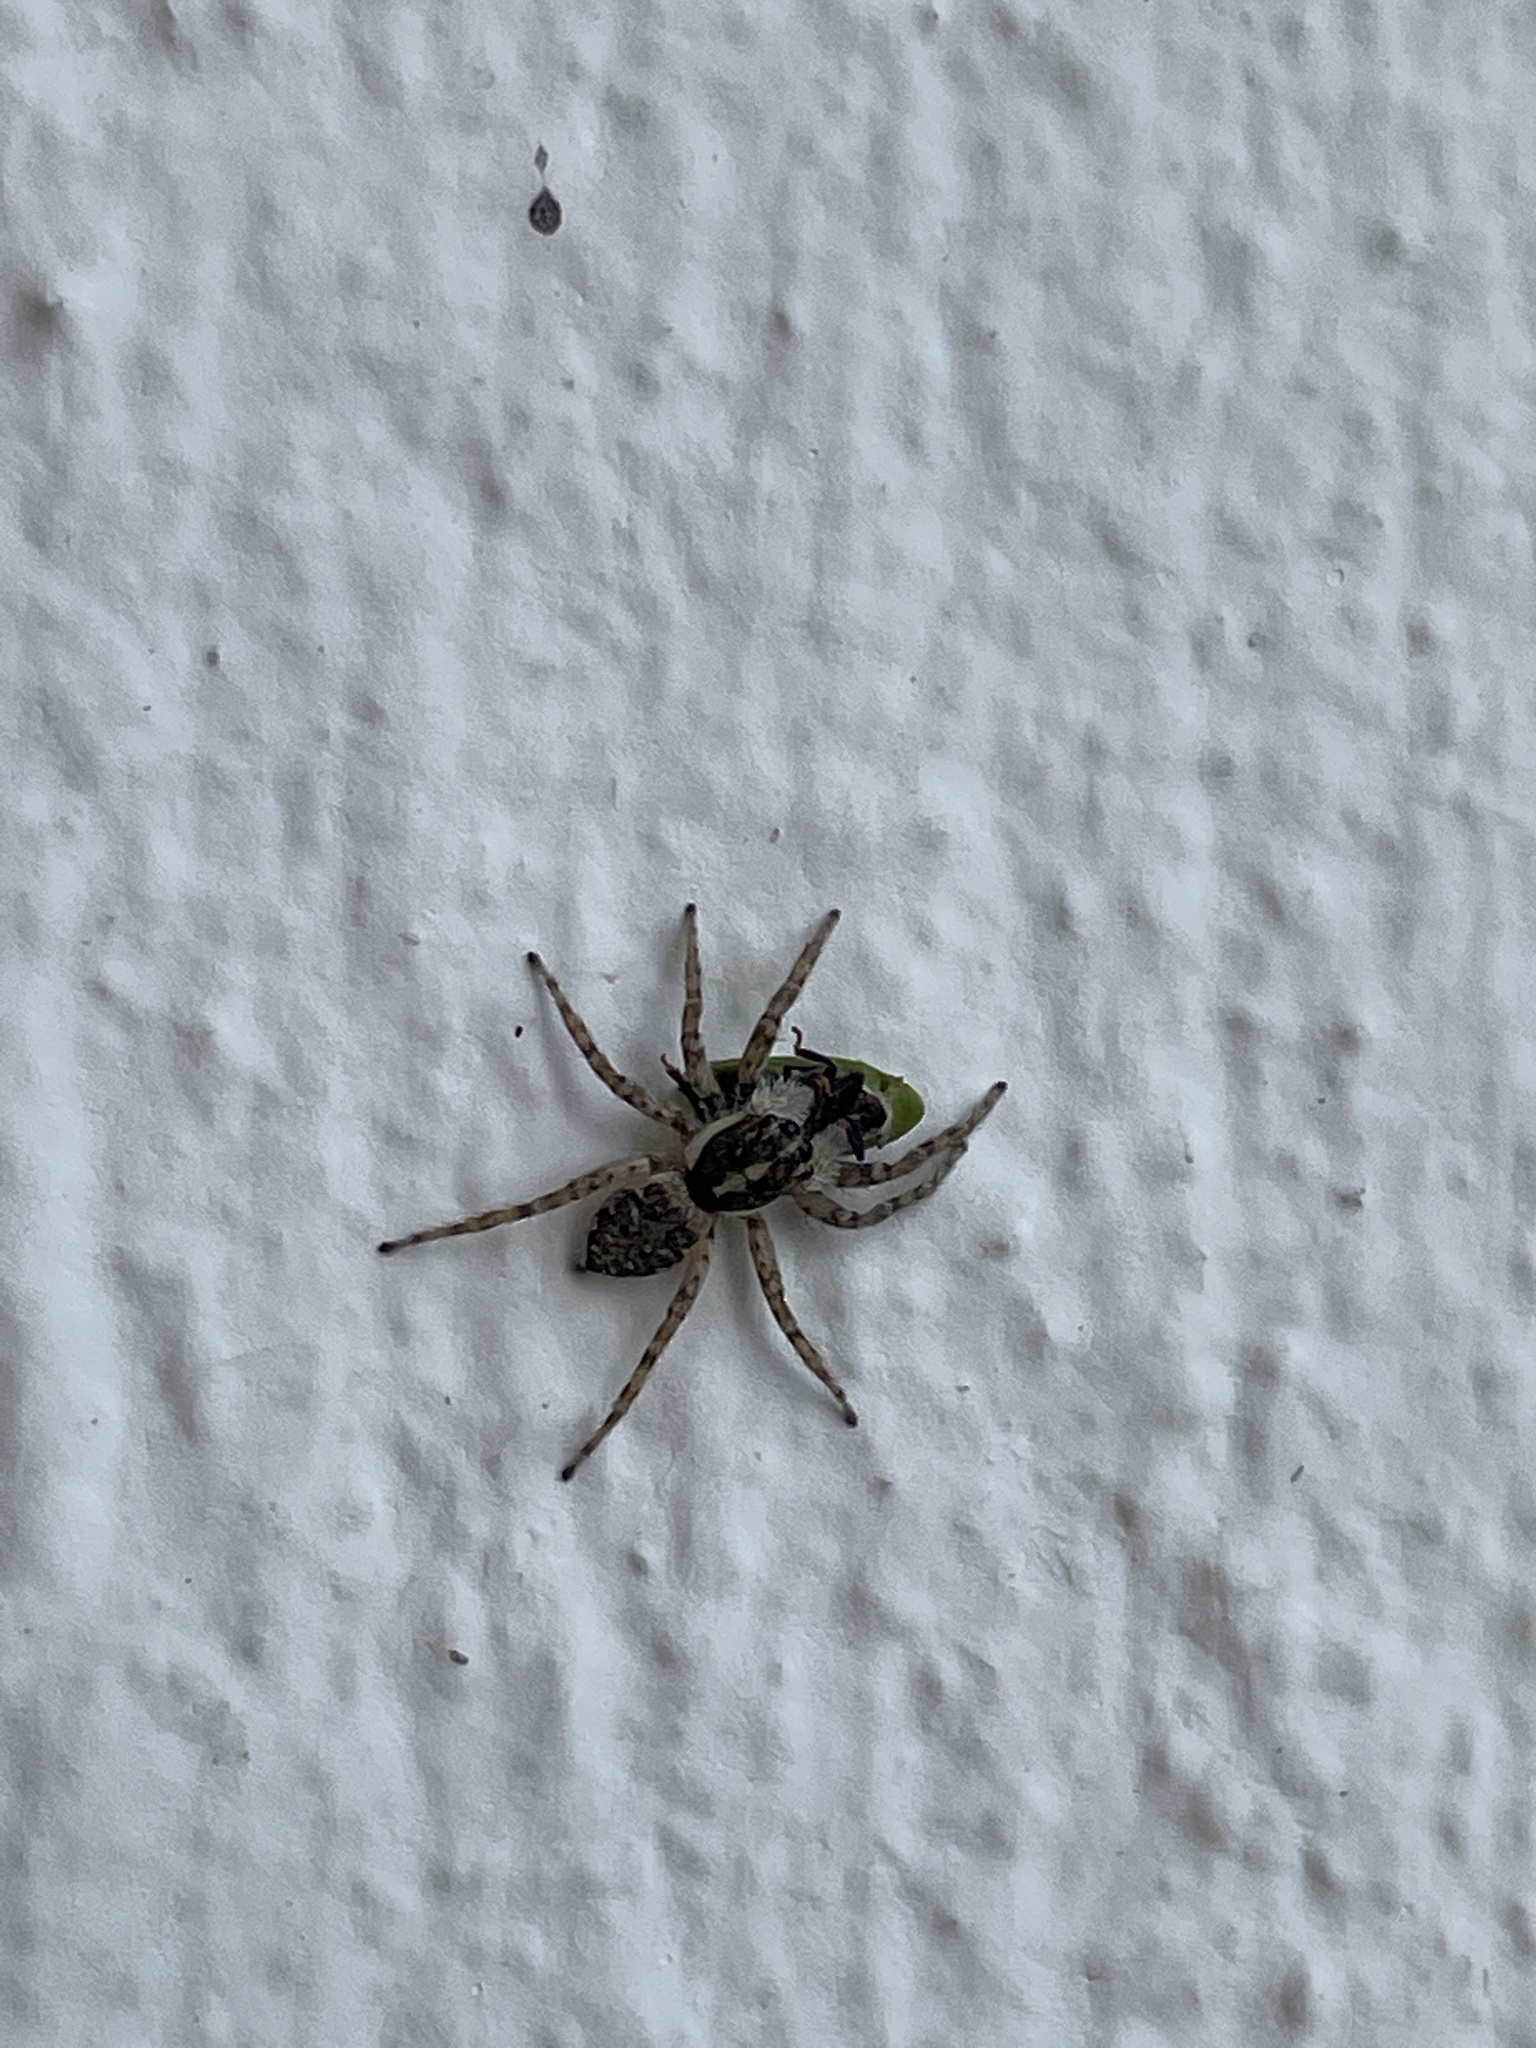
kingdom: Animalia
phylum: Arthropoda
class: Arachnida
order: Araneae
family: Salticidae
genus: Menemerus
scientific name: Menemerus semilimbatus
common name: Jumping spider
